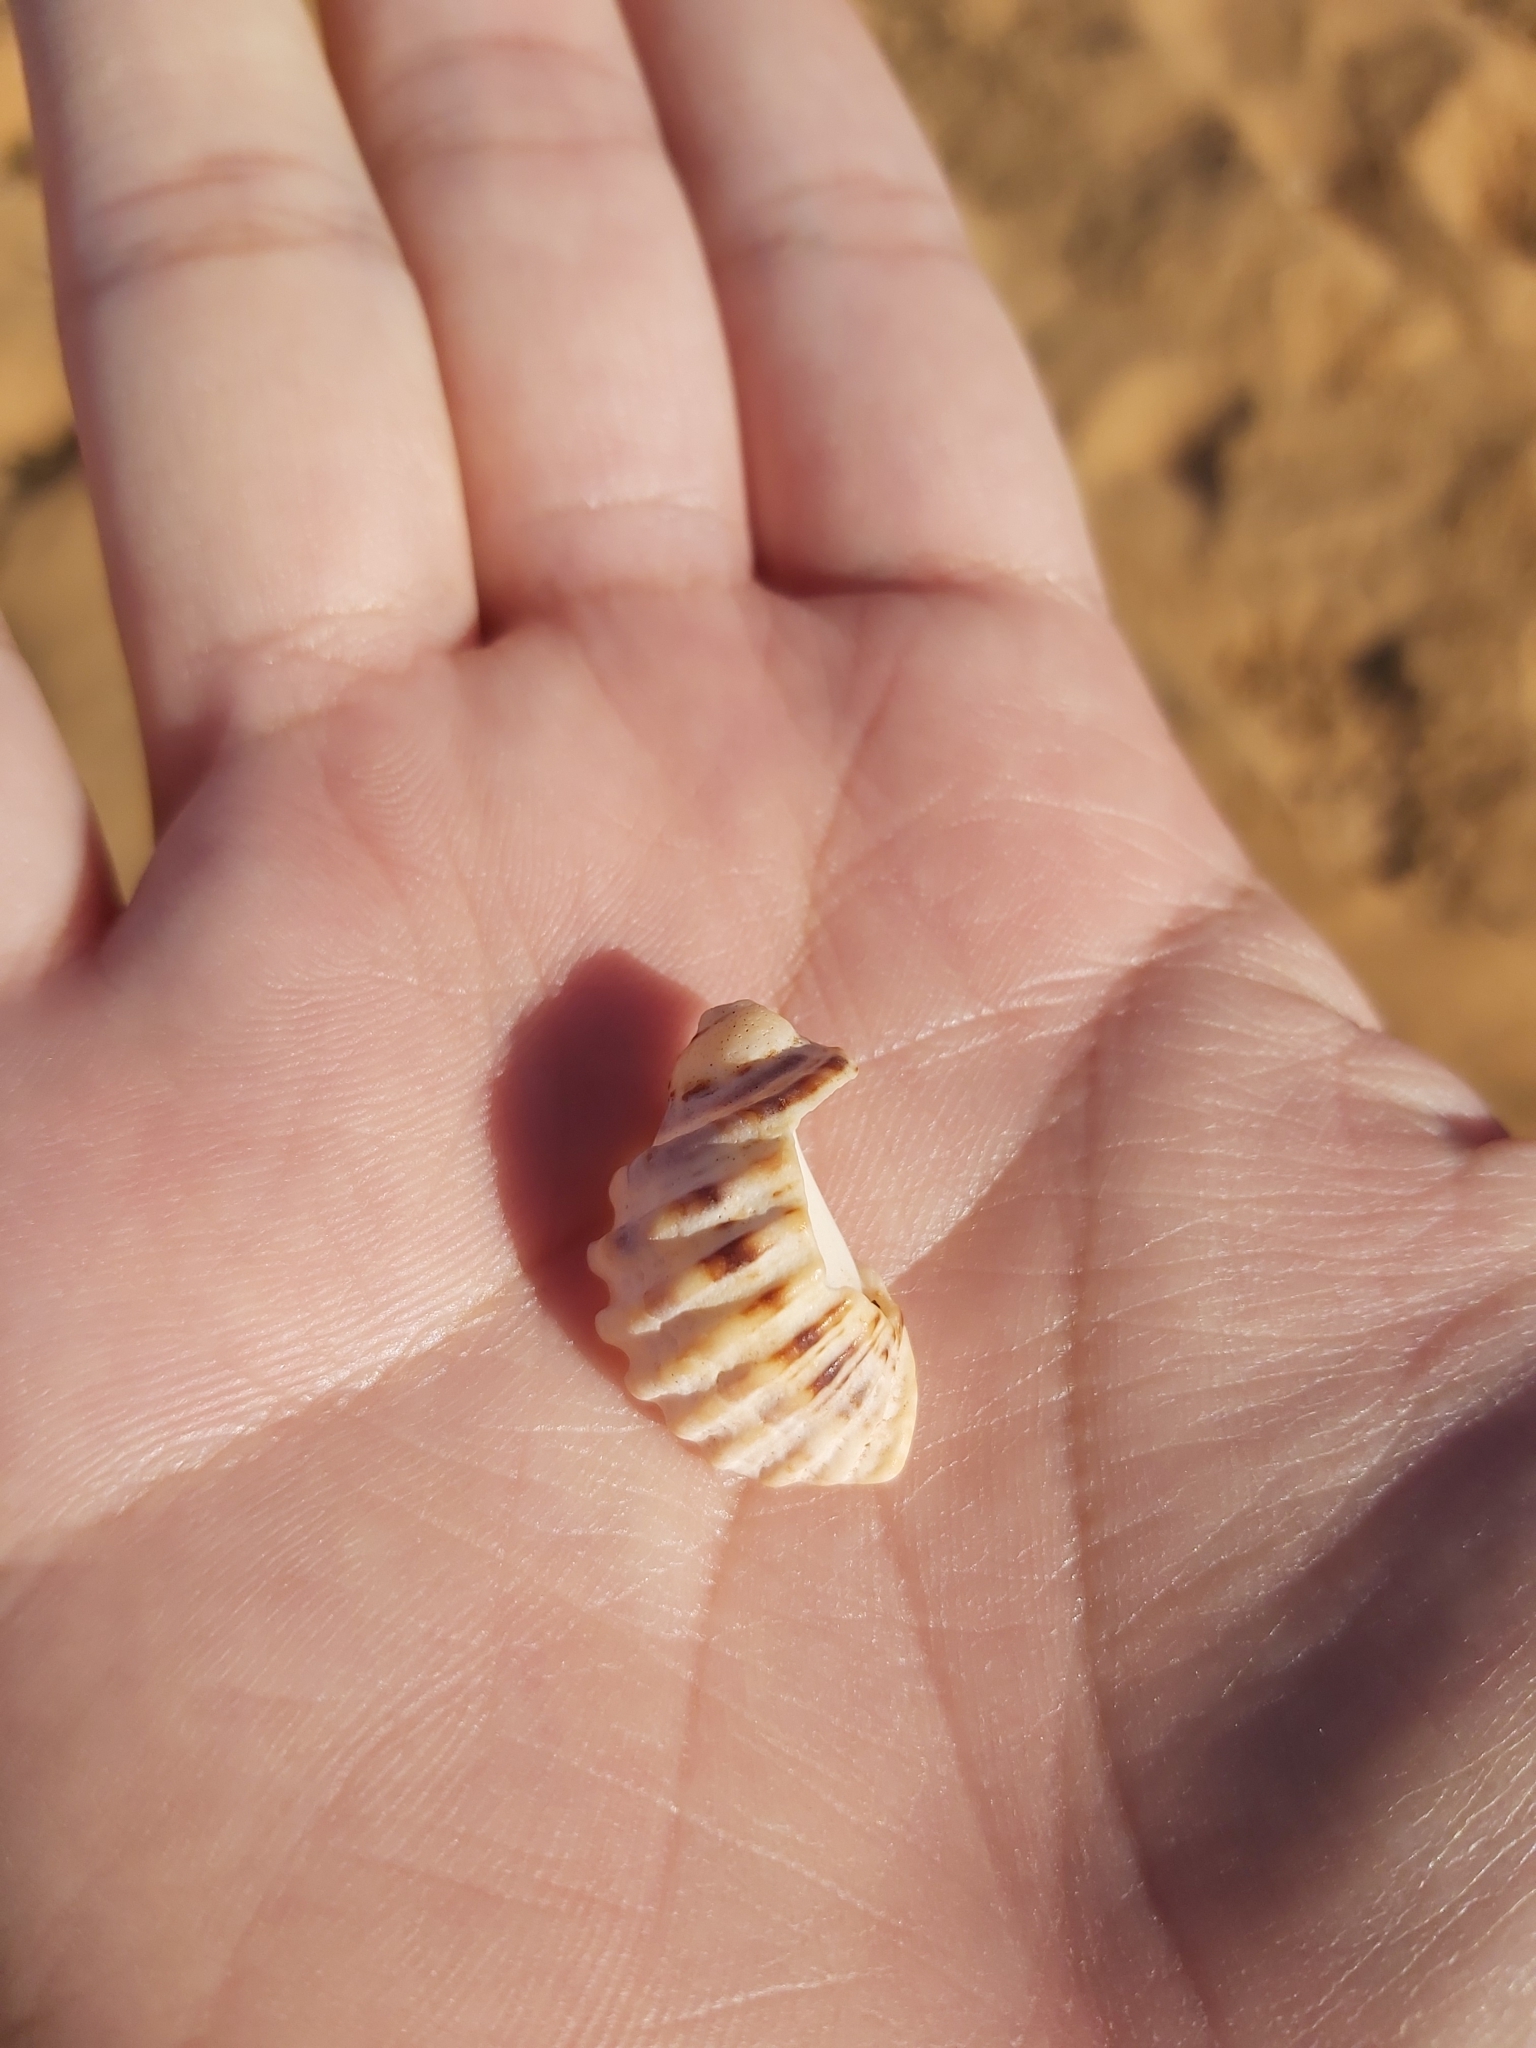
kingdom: Animalia
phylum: Mollusca
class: Gastropoda
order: Neogastropoda
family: Muricidae
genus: Dicathais
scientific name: Dicathais orbita
